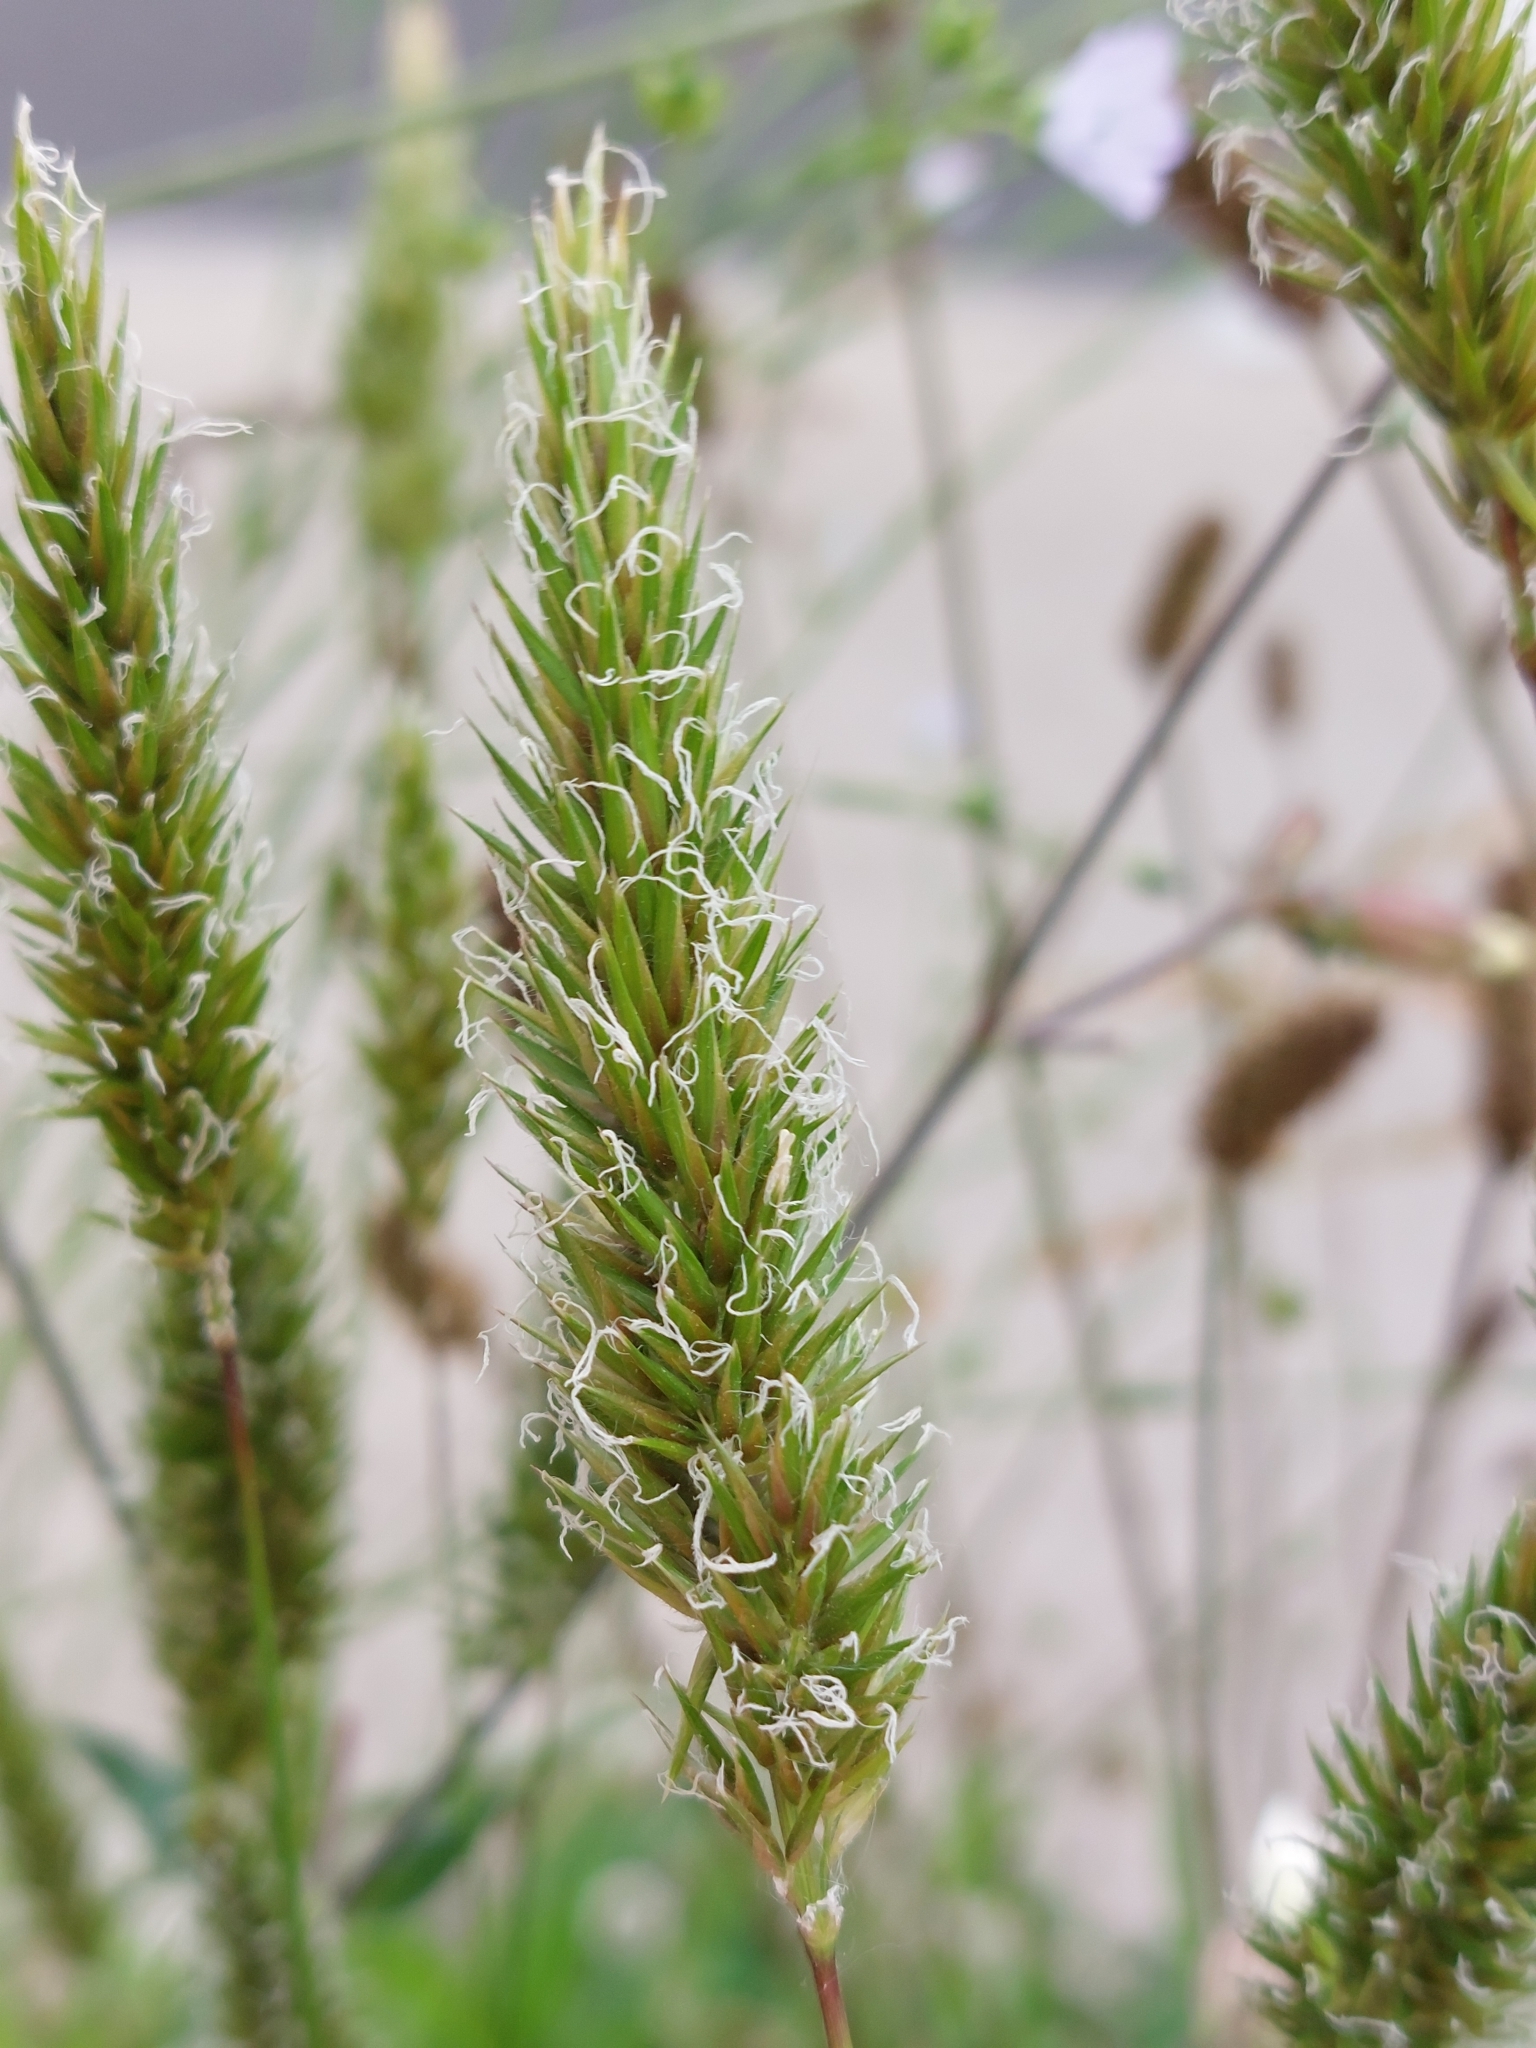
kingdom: Plantae
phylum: Tracheophyta
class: Liliopsida
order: Poales
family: Poaceae
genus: Anthoxanthum
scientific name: Anthoxanthum odoratum
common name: Sweet vernalgrass
